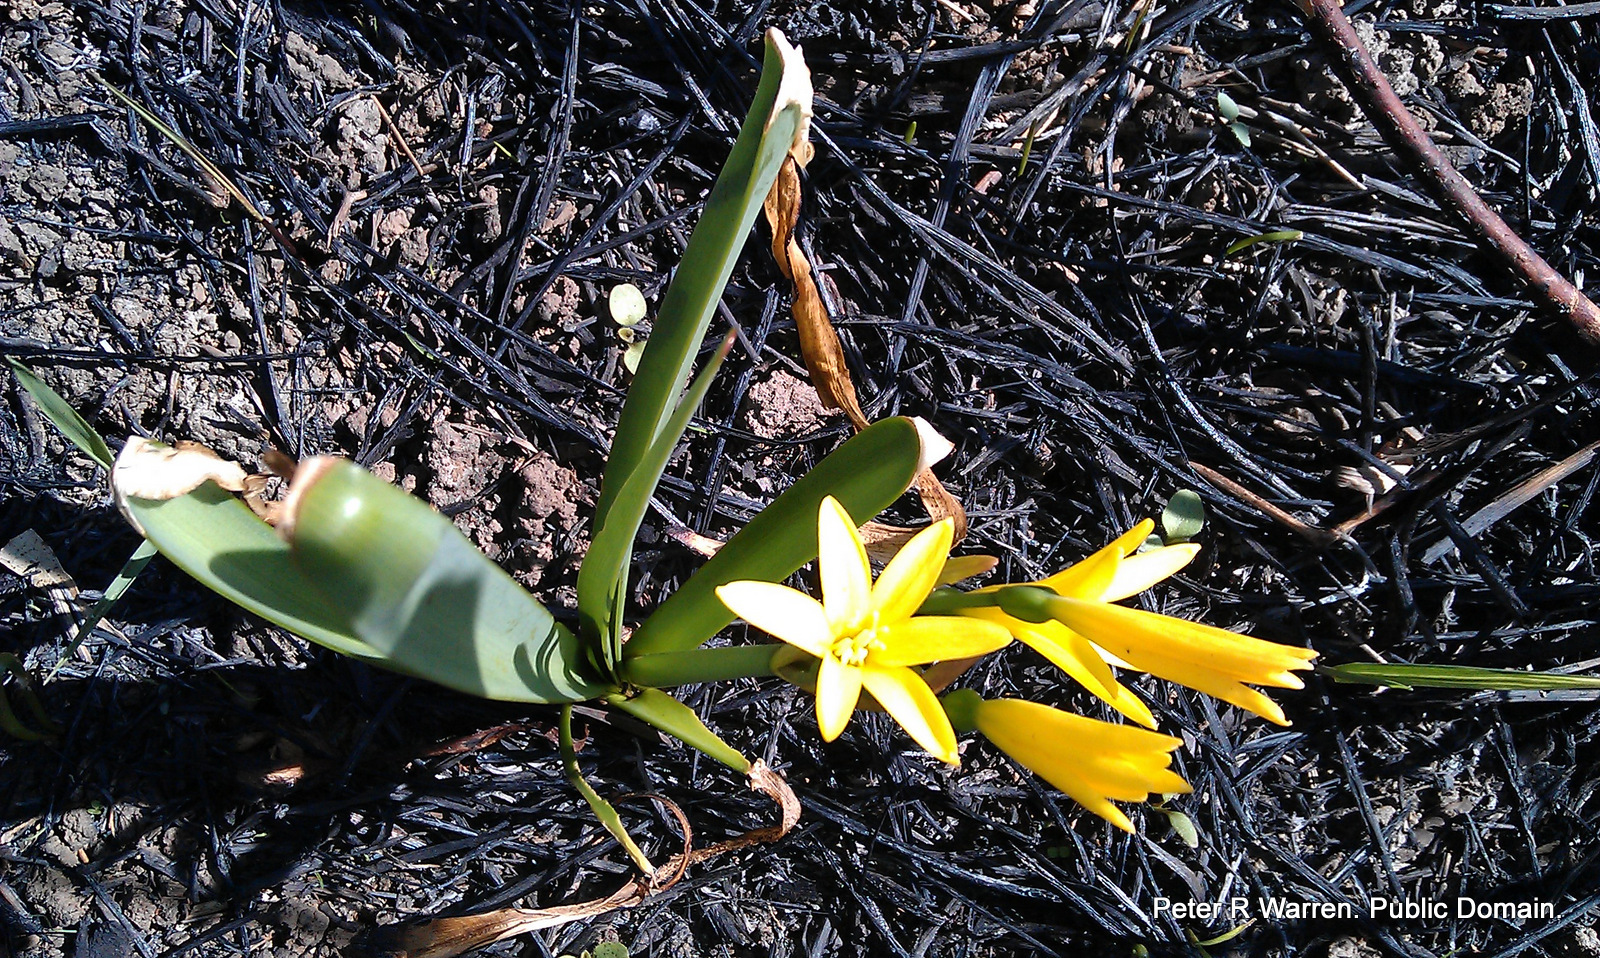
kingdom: Plantae
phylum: Tracheophyta
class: Liliopsida
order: Asparagales
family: Amaryllidaceae
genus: Cyrtanthus
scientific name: Cyrtanthus breviflorus
